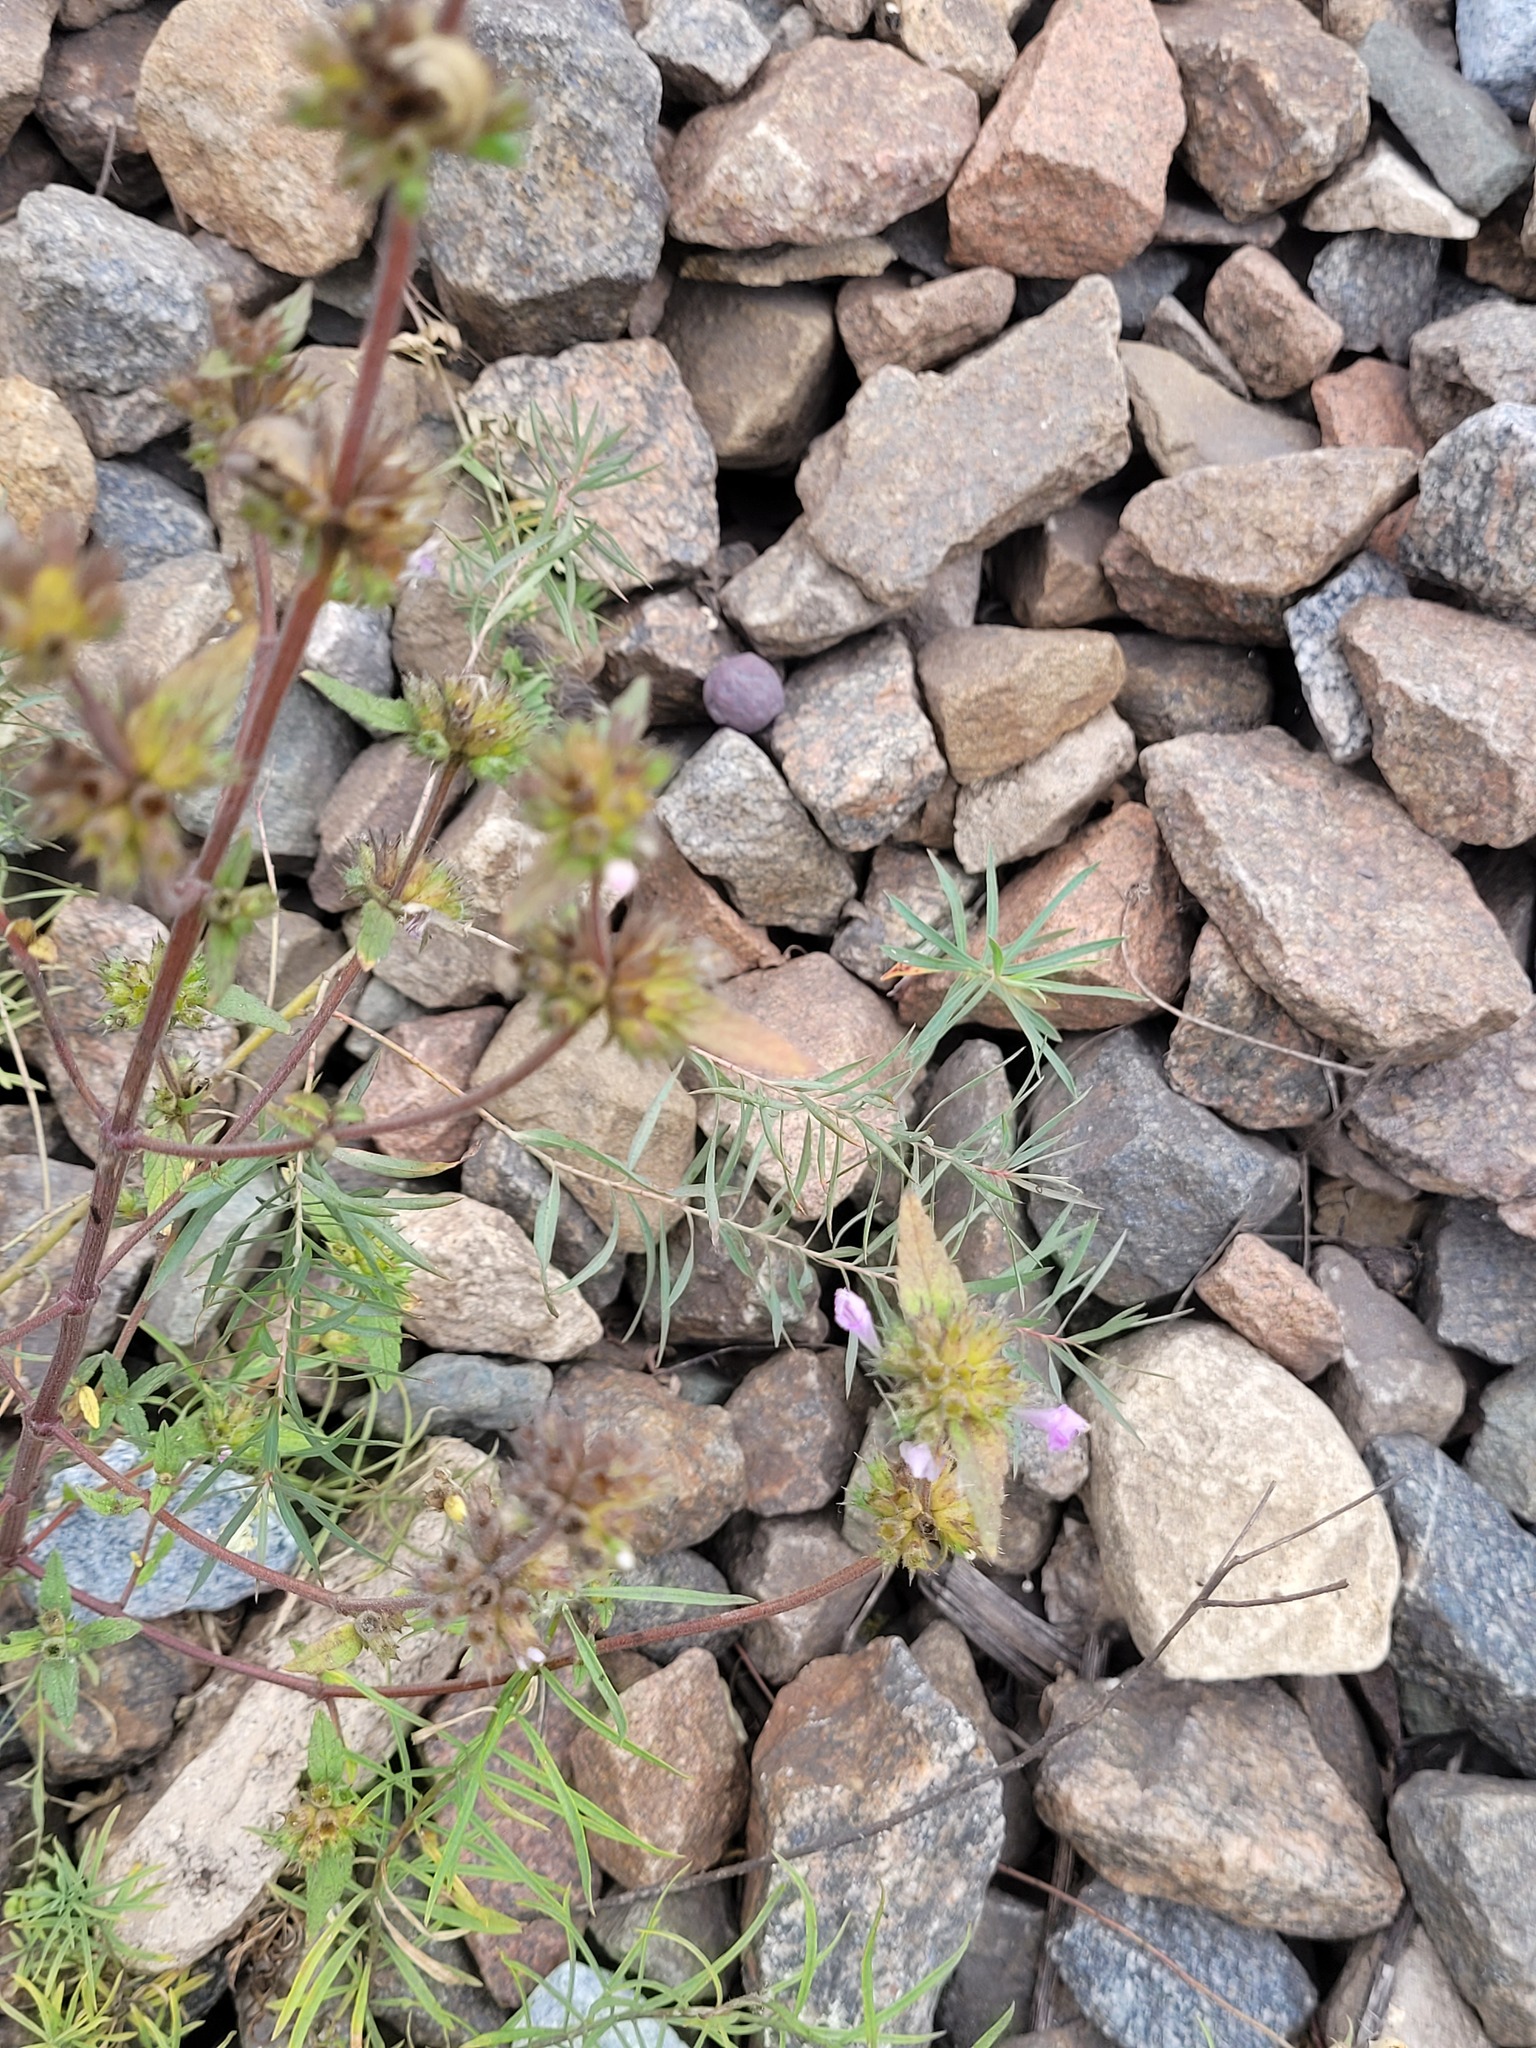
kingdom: Plantae
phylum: Tracheophyta
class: Magnoliopsida
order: Lamiales
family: Lamiaceae
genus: Galeopsis
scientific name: Galeopsis ladanum
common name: Broad-leaved hemp-nettle
